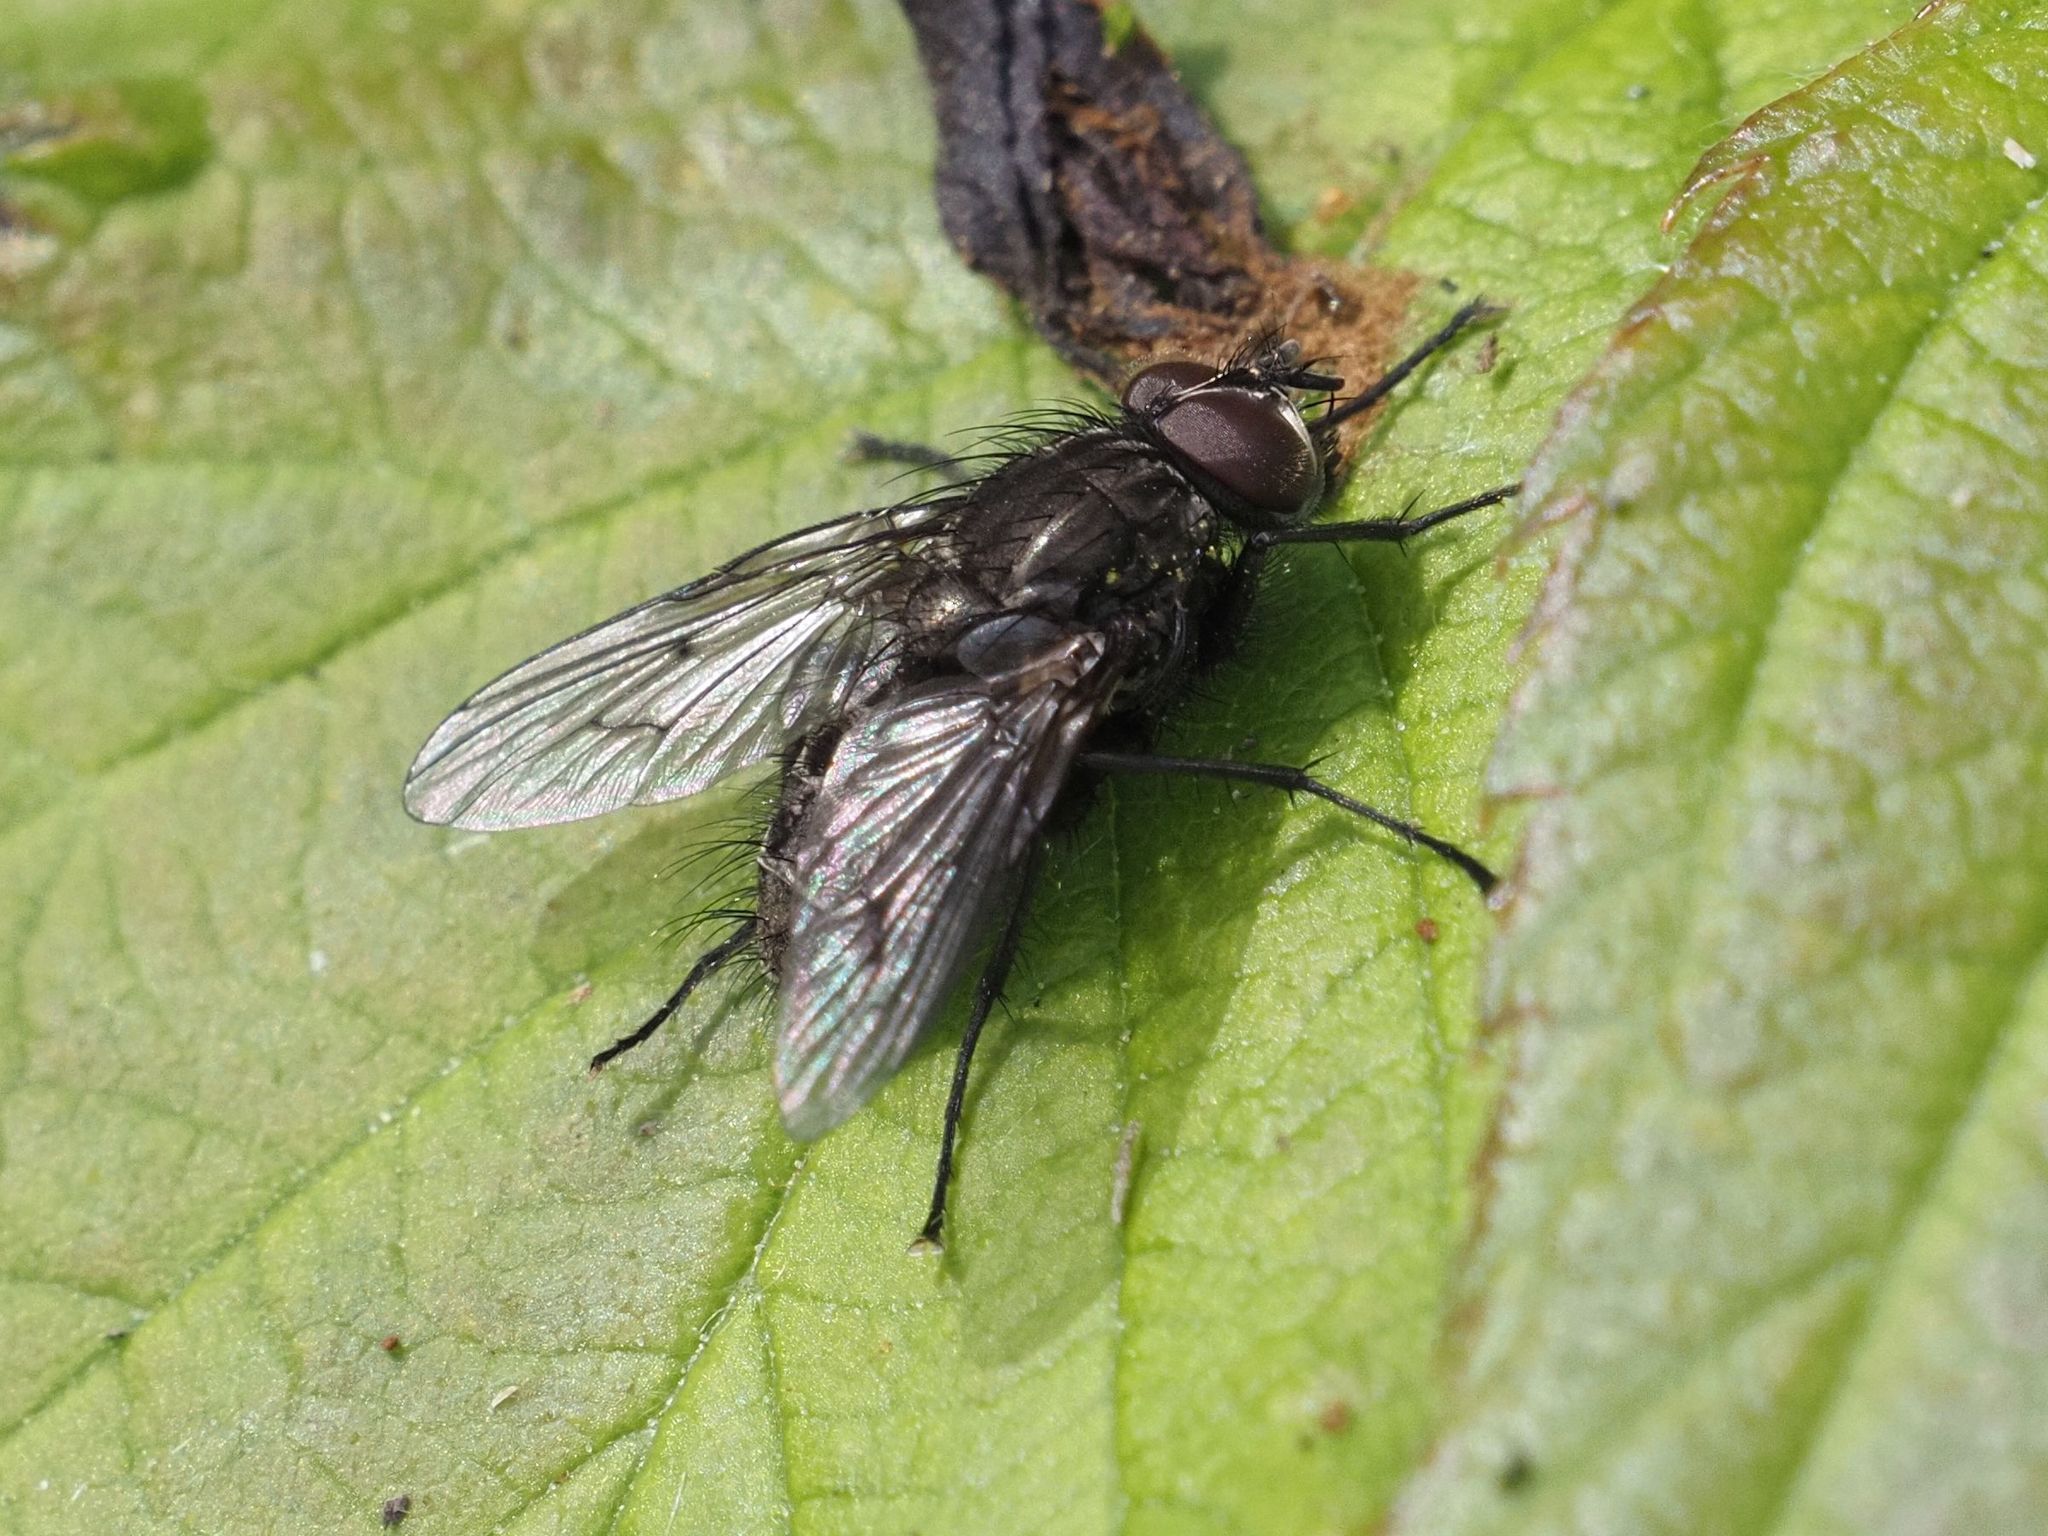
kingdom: Animalia
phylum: Arthropoda
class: Insecta
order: Diptera
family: Muscidae
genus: Helina
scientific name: Helina evecta
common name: Muscid fly
